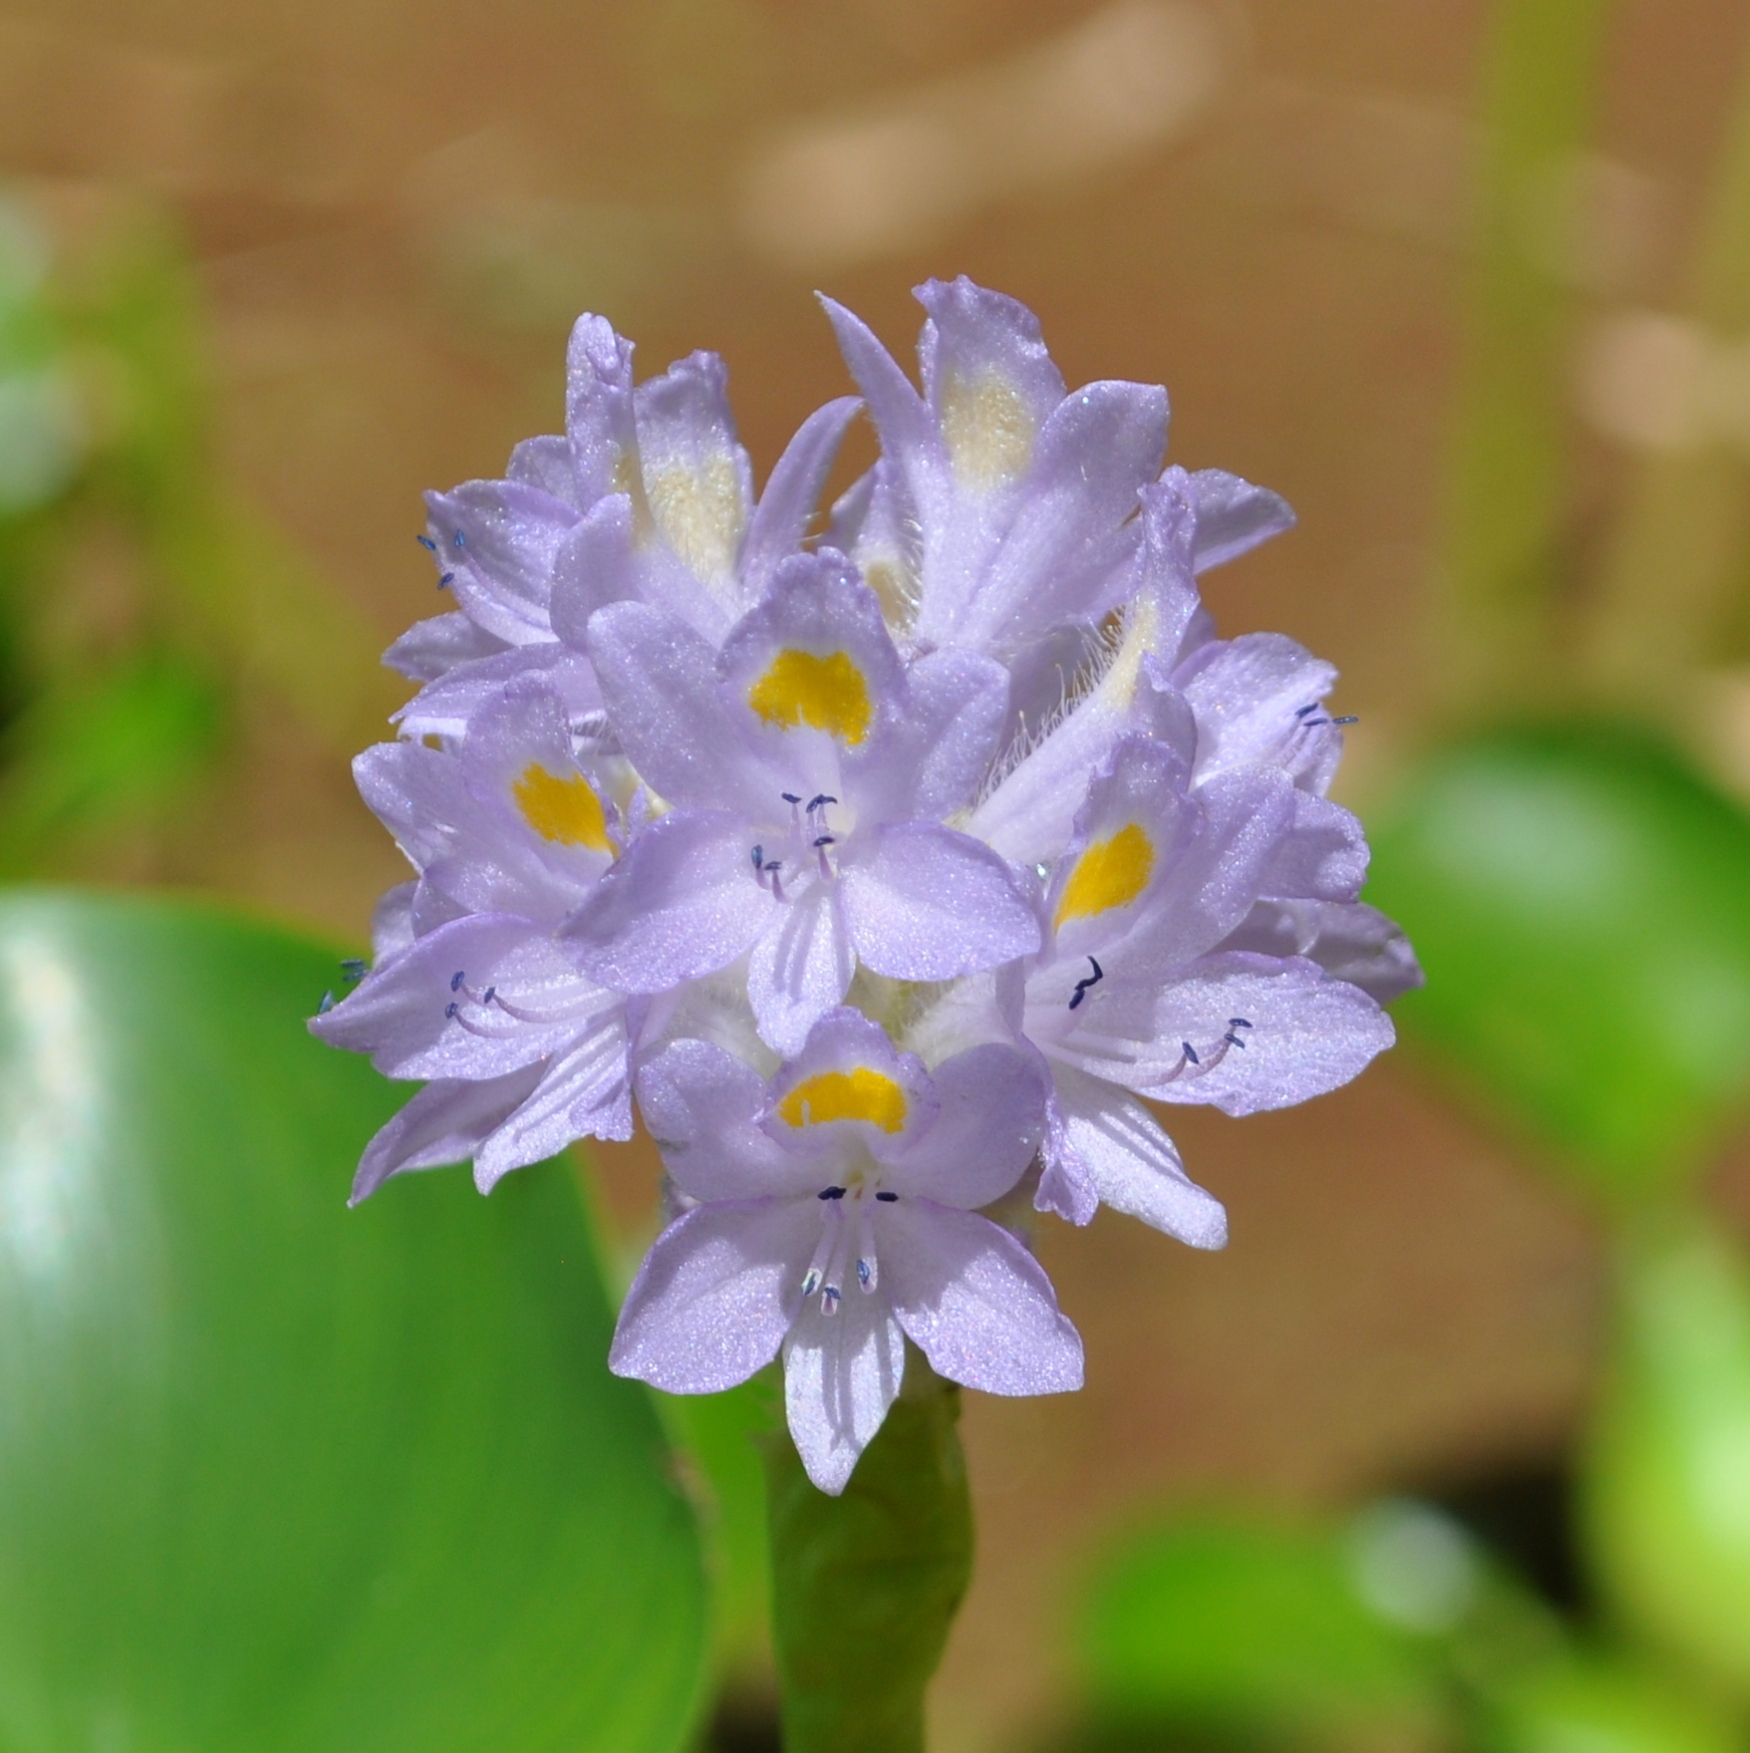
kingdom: Plantae
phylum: Tracheophyta
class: Liliopsida
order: Commelinales
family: Pontederiaceae
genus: Pontederia
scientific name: Pontederia subovata
